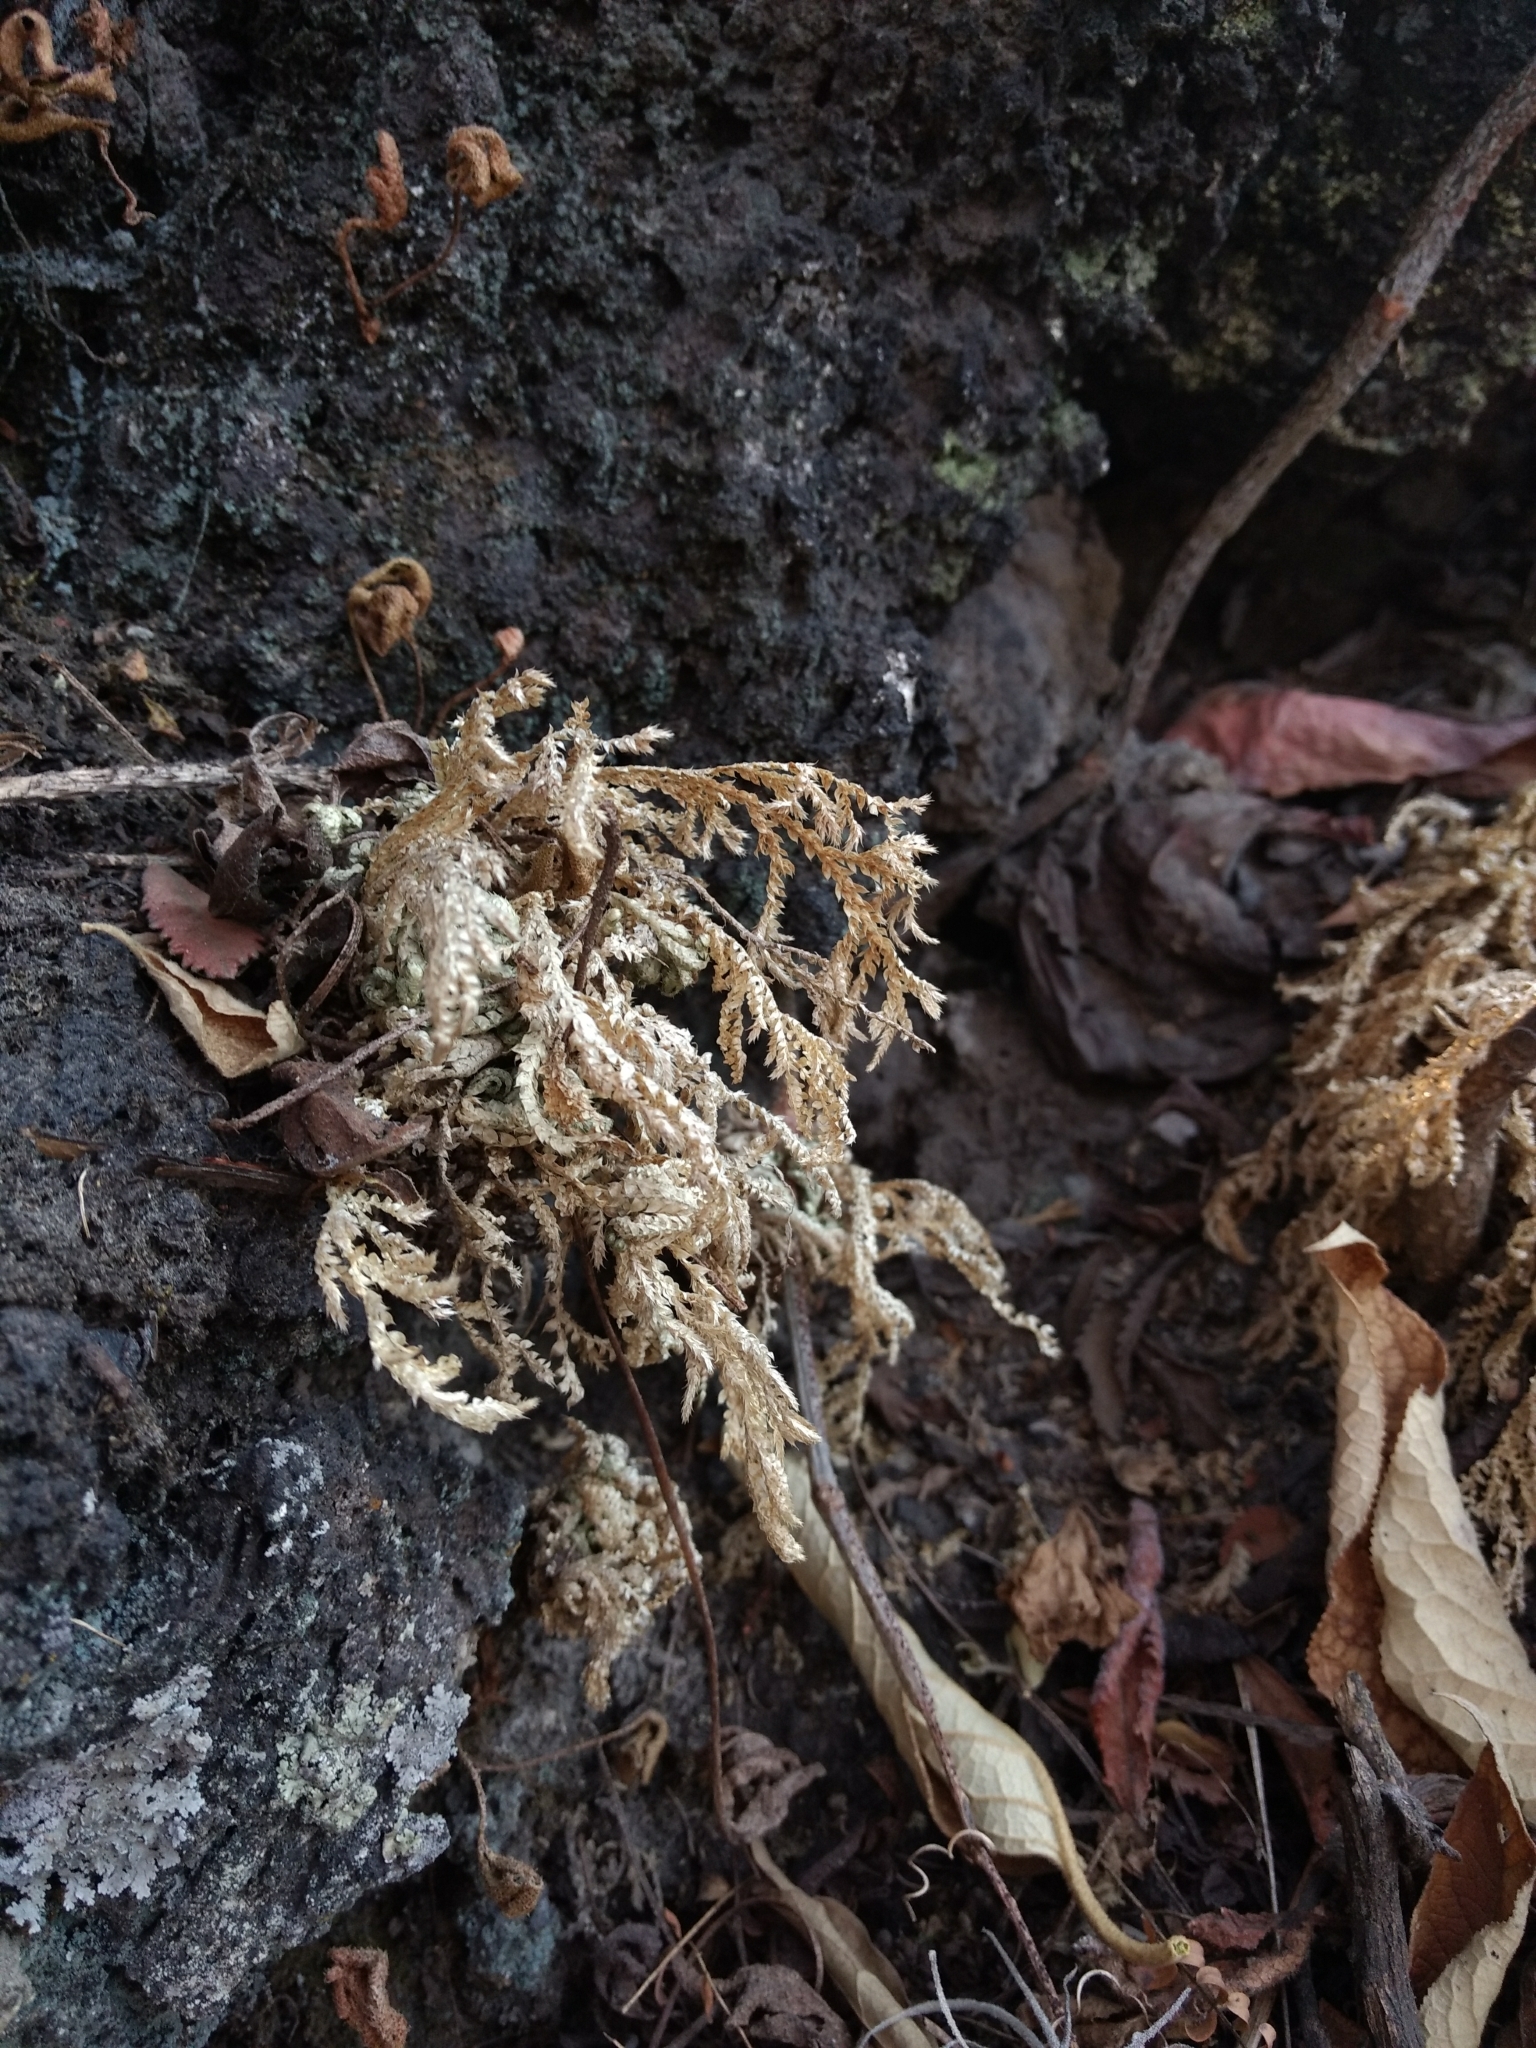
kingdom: Plantae
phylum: Tracheophyta
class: Lycopodiopsida
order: Selaginellales
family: Selaginellaceae
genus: Selaginella
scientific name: Selaginella lepidophylla
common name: Rose-of-jericho
